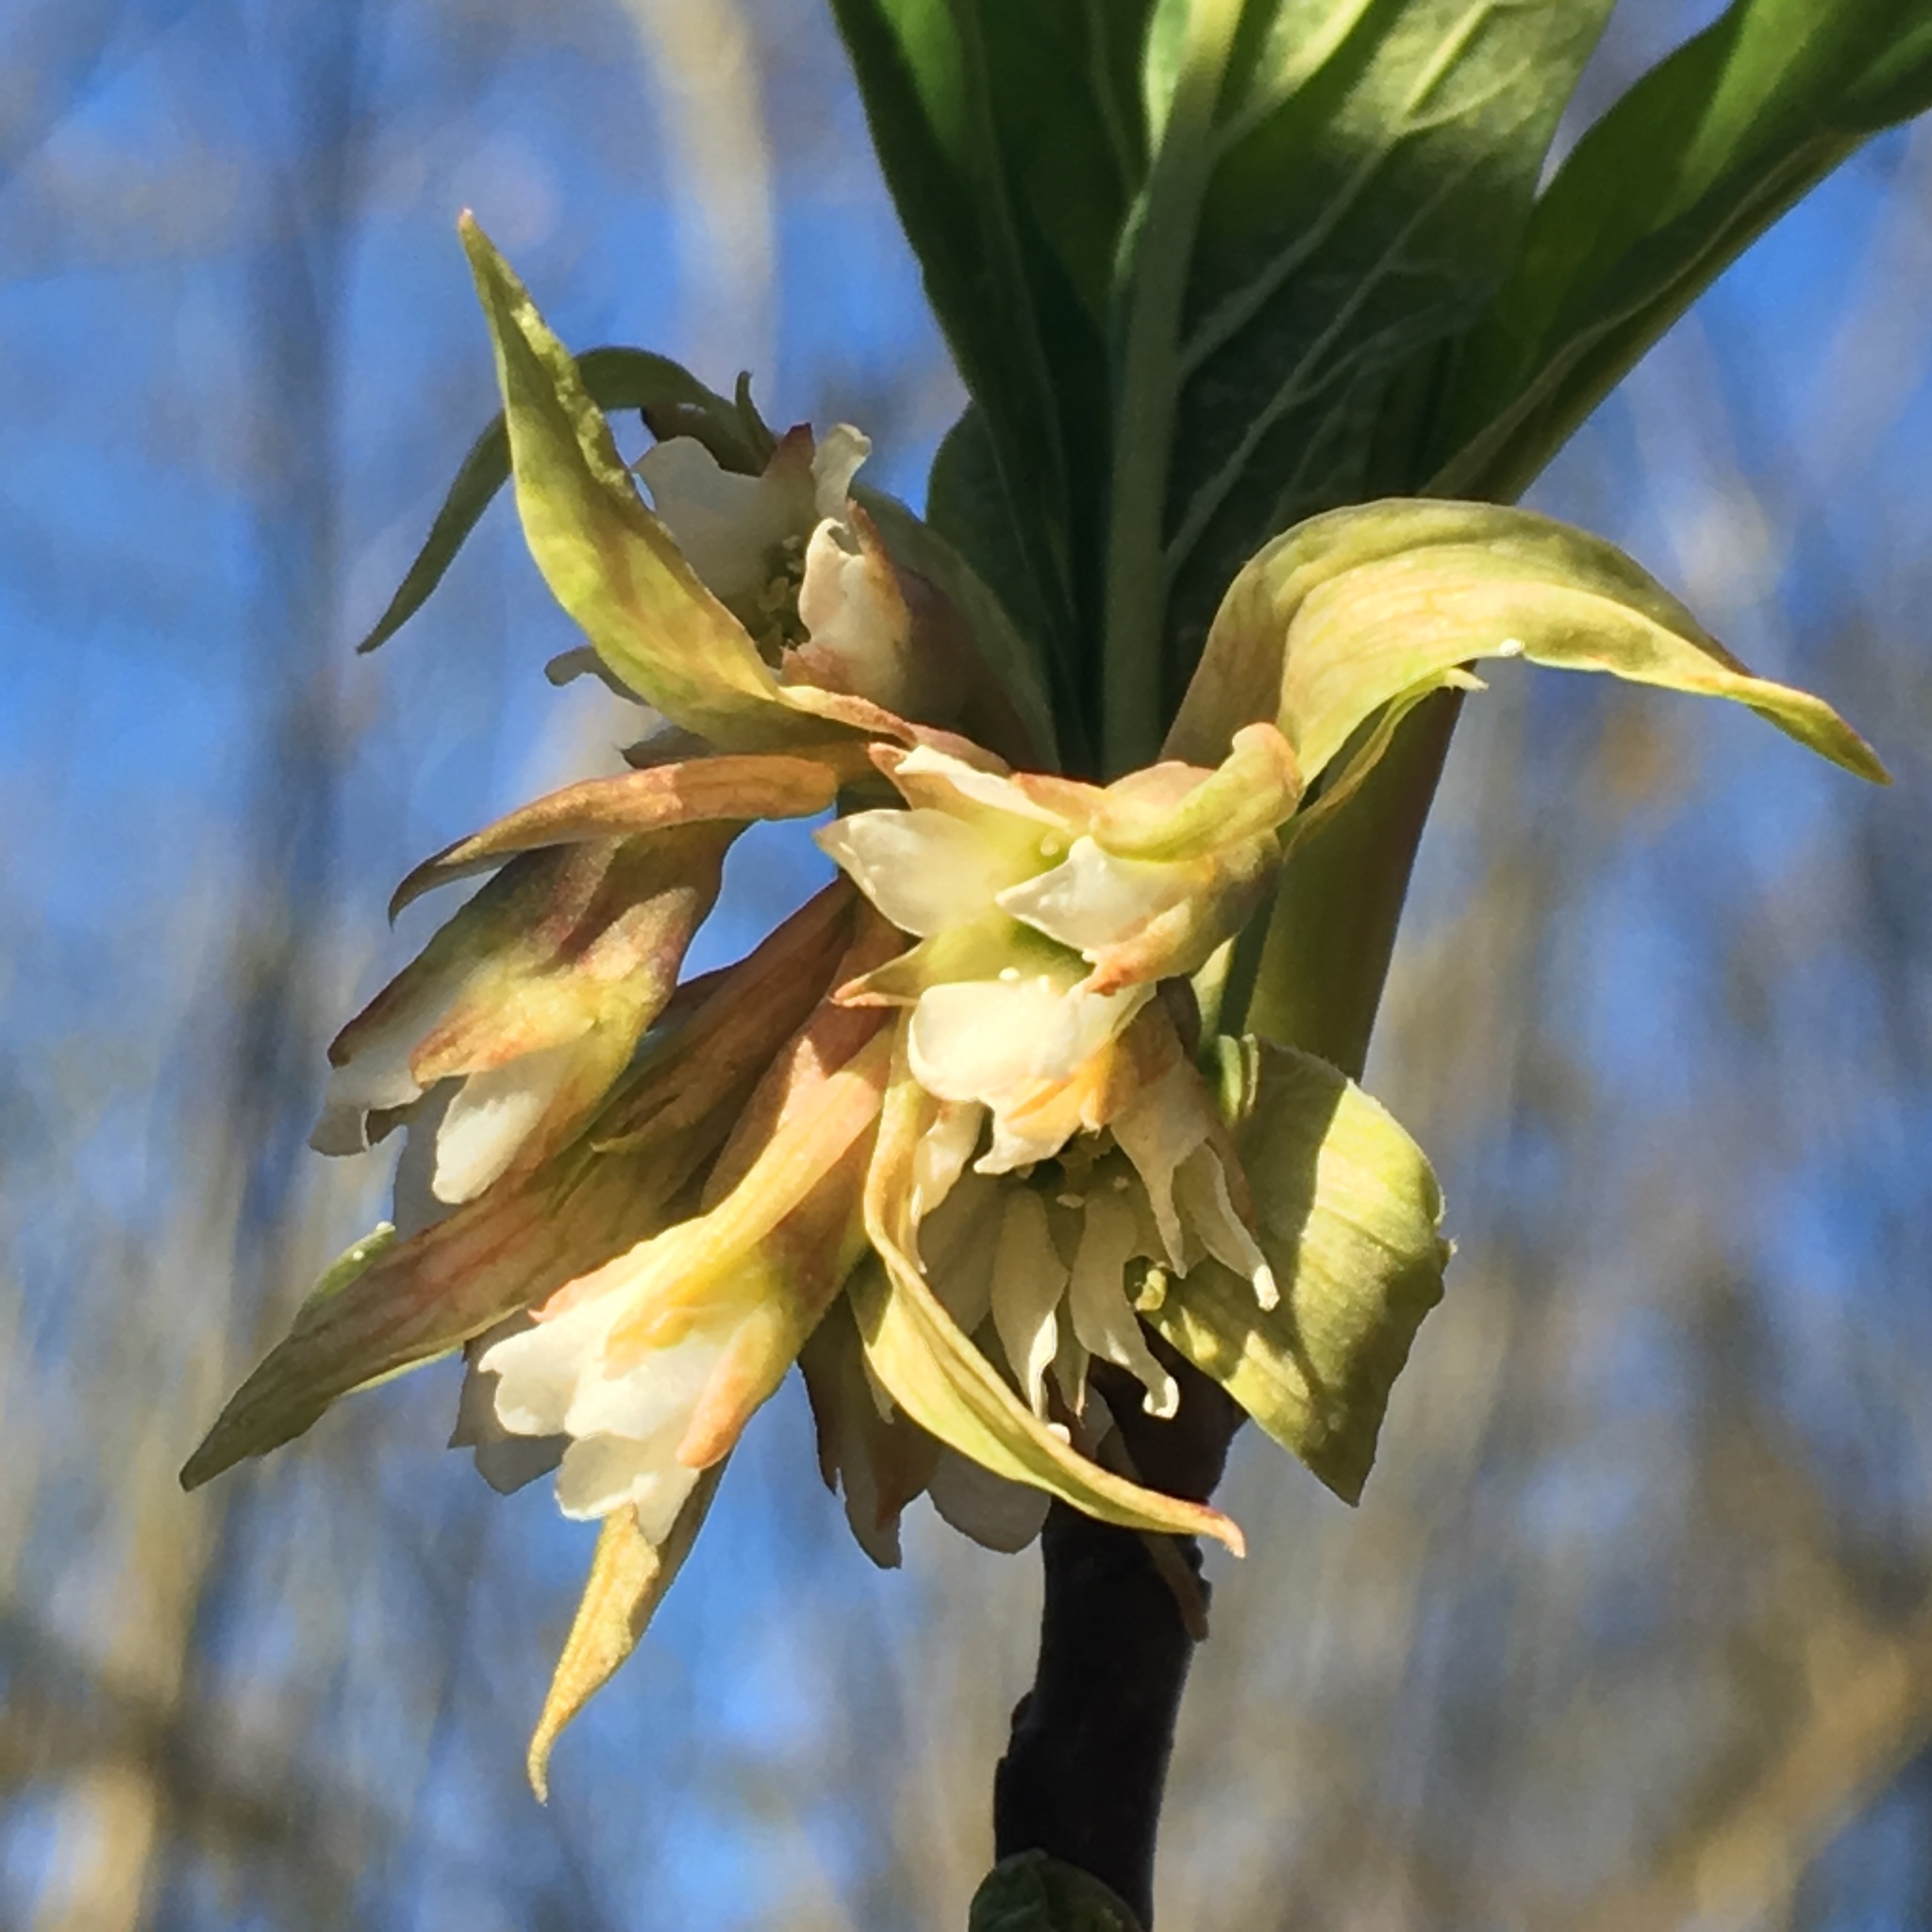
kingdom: Plantae
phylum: Tracheophyta
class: Magnoliopsida
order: Rosales
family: Rosaceae
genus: Oemleria
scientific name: Oemleria cerasiformis
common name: Osoberry
